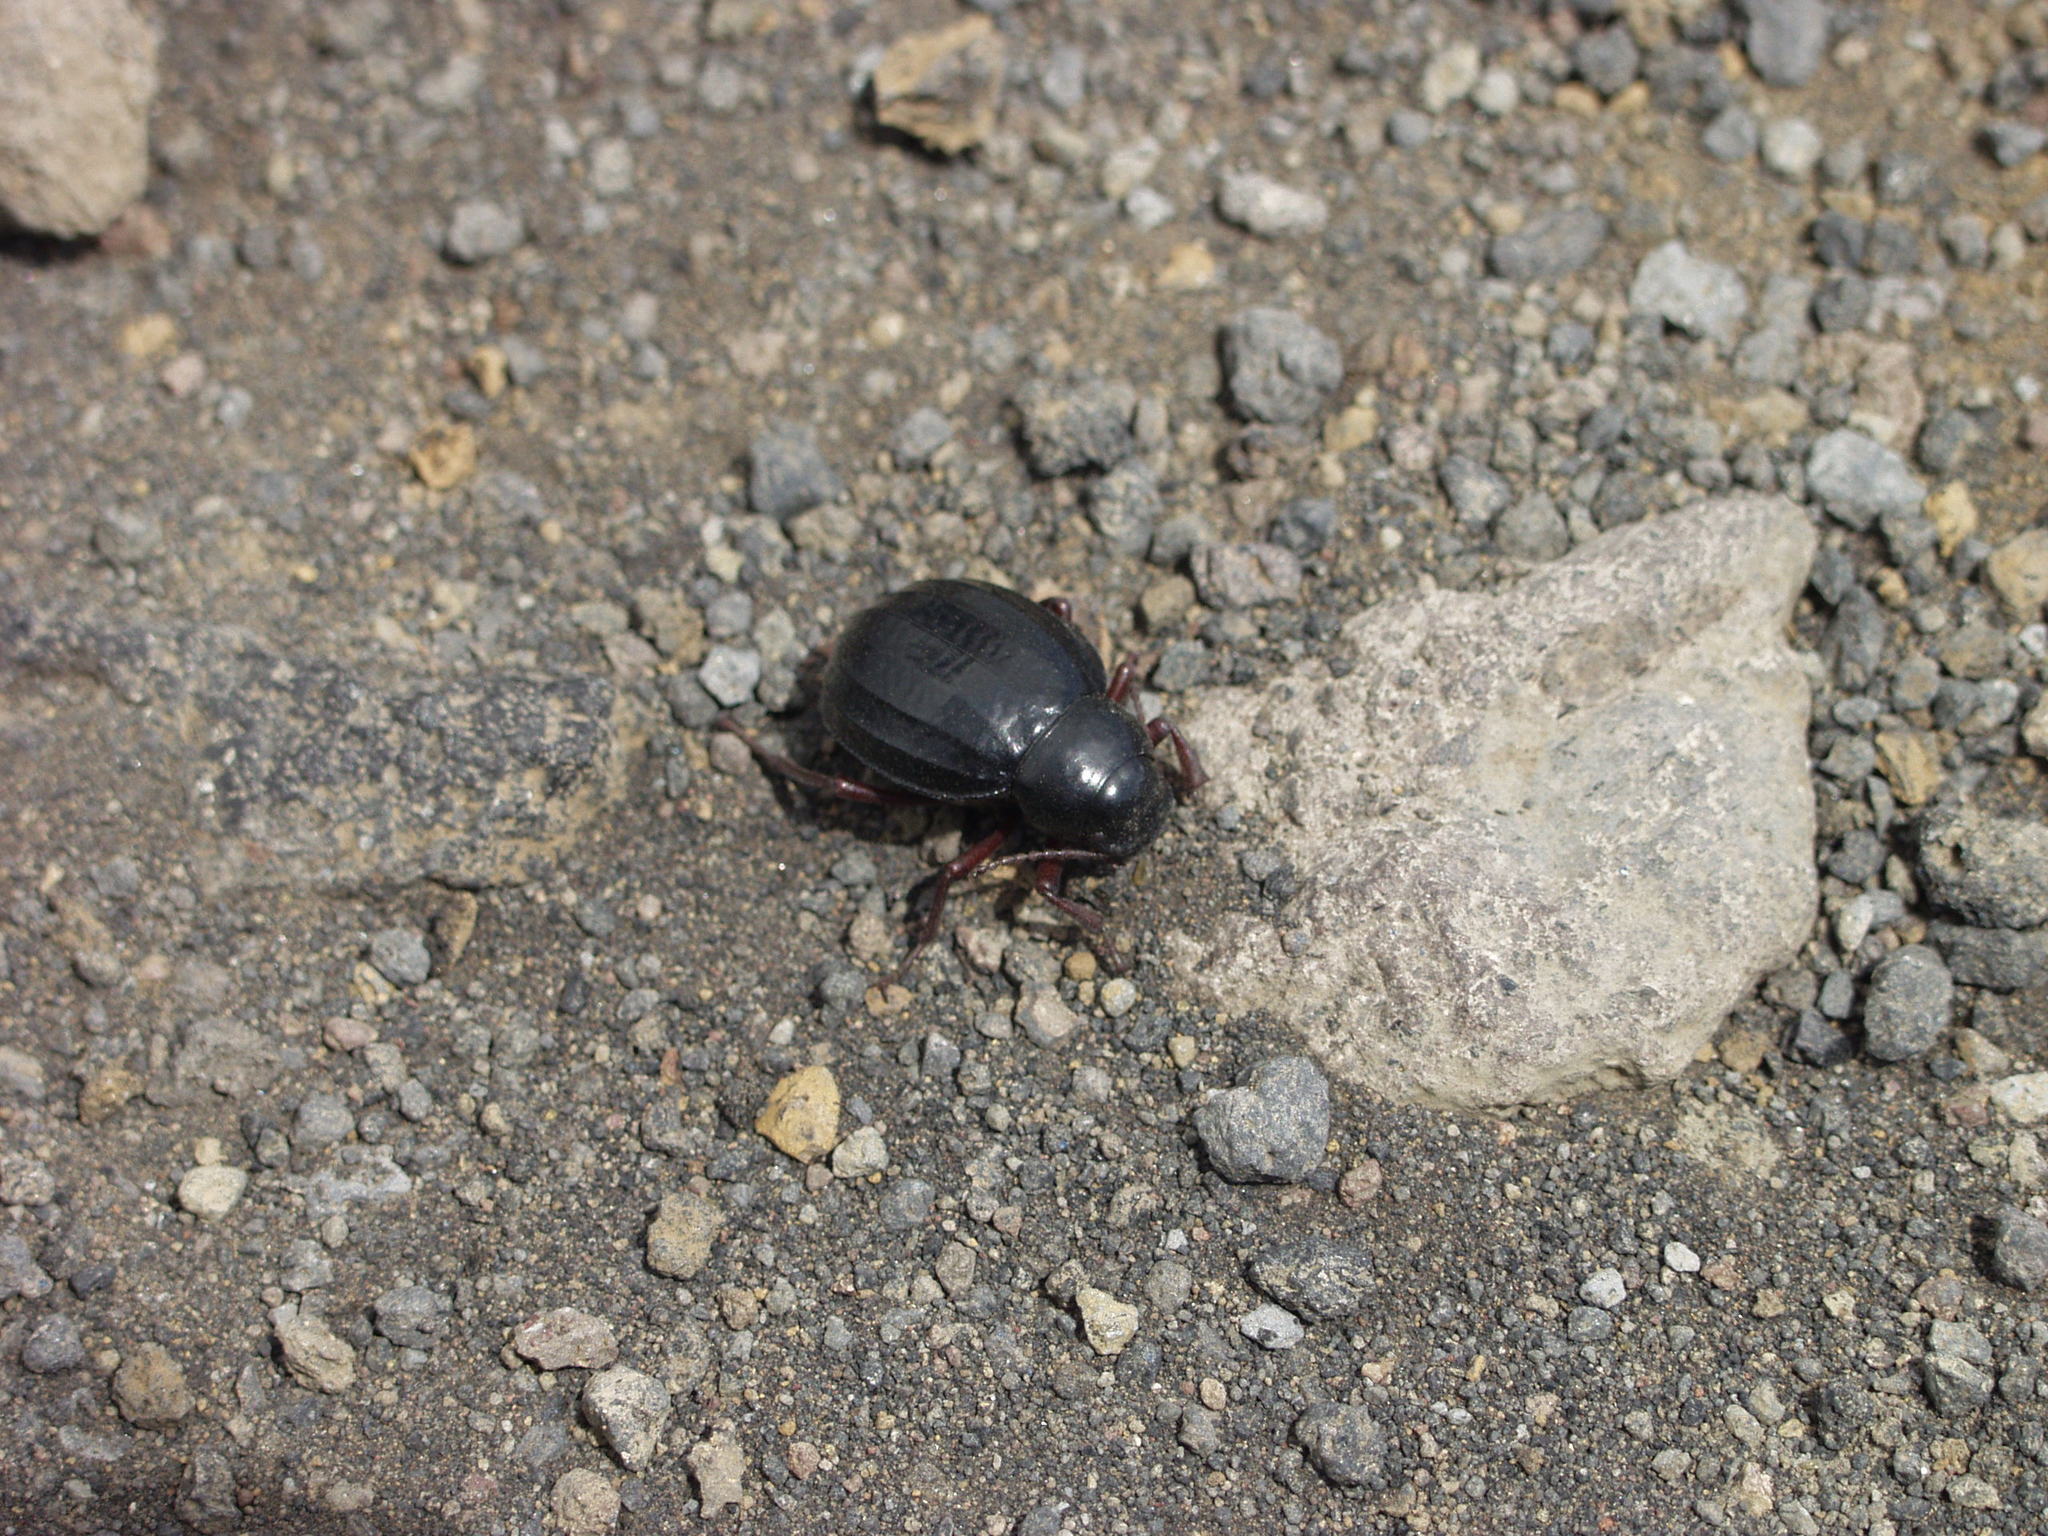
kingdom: Animalia
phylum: Arthropoda
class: Insecta
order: Coleoptera
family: Tenebrionidae
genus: Pimelia
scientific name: Pimelia laevigata
